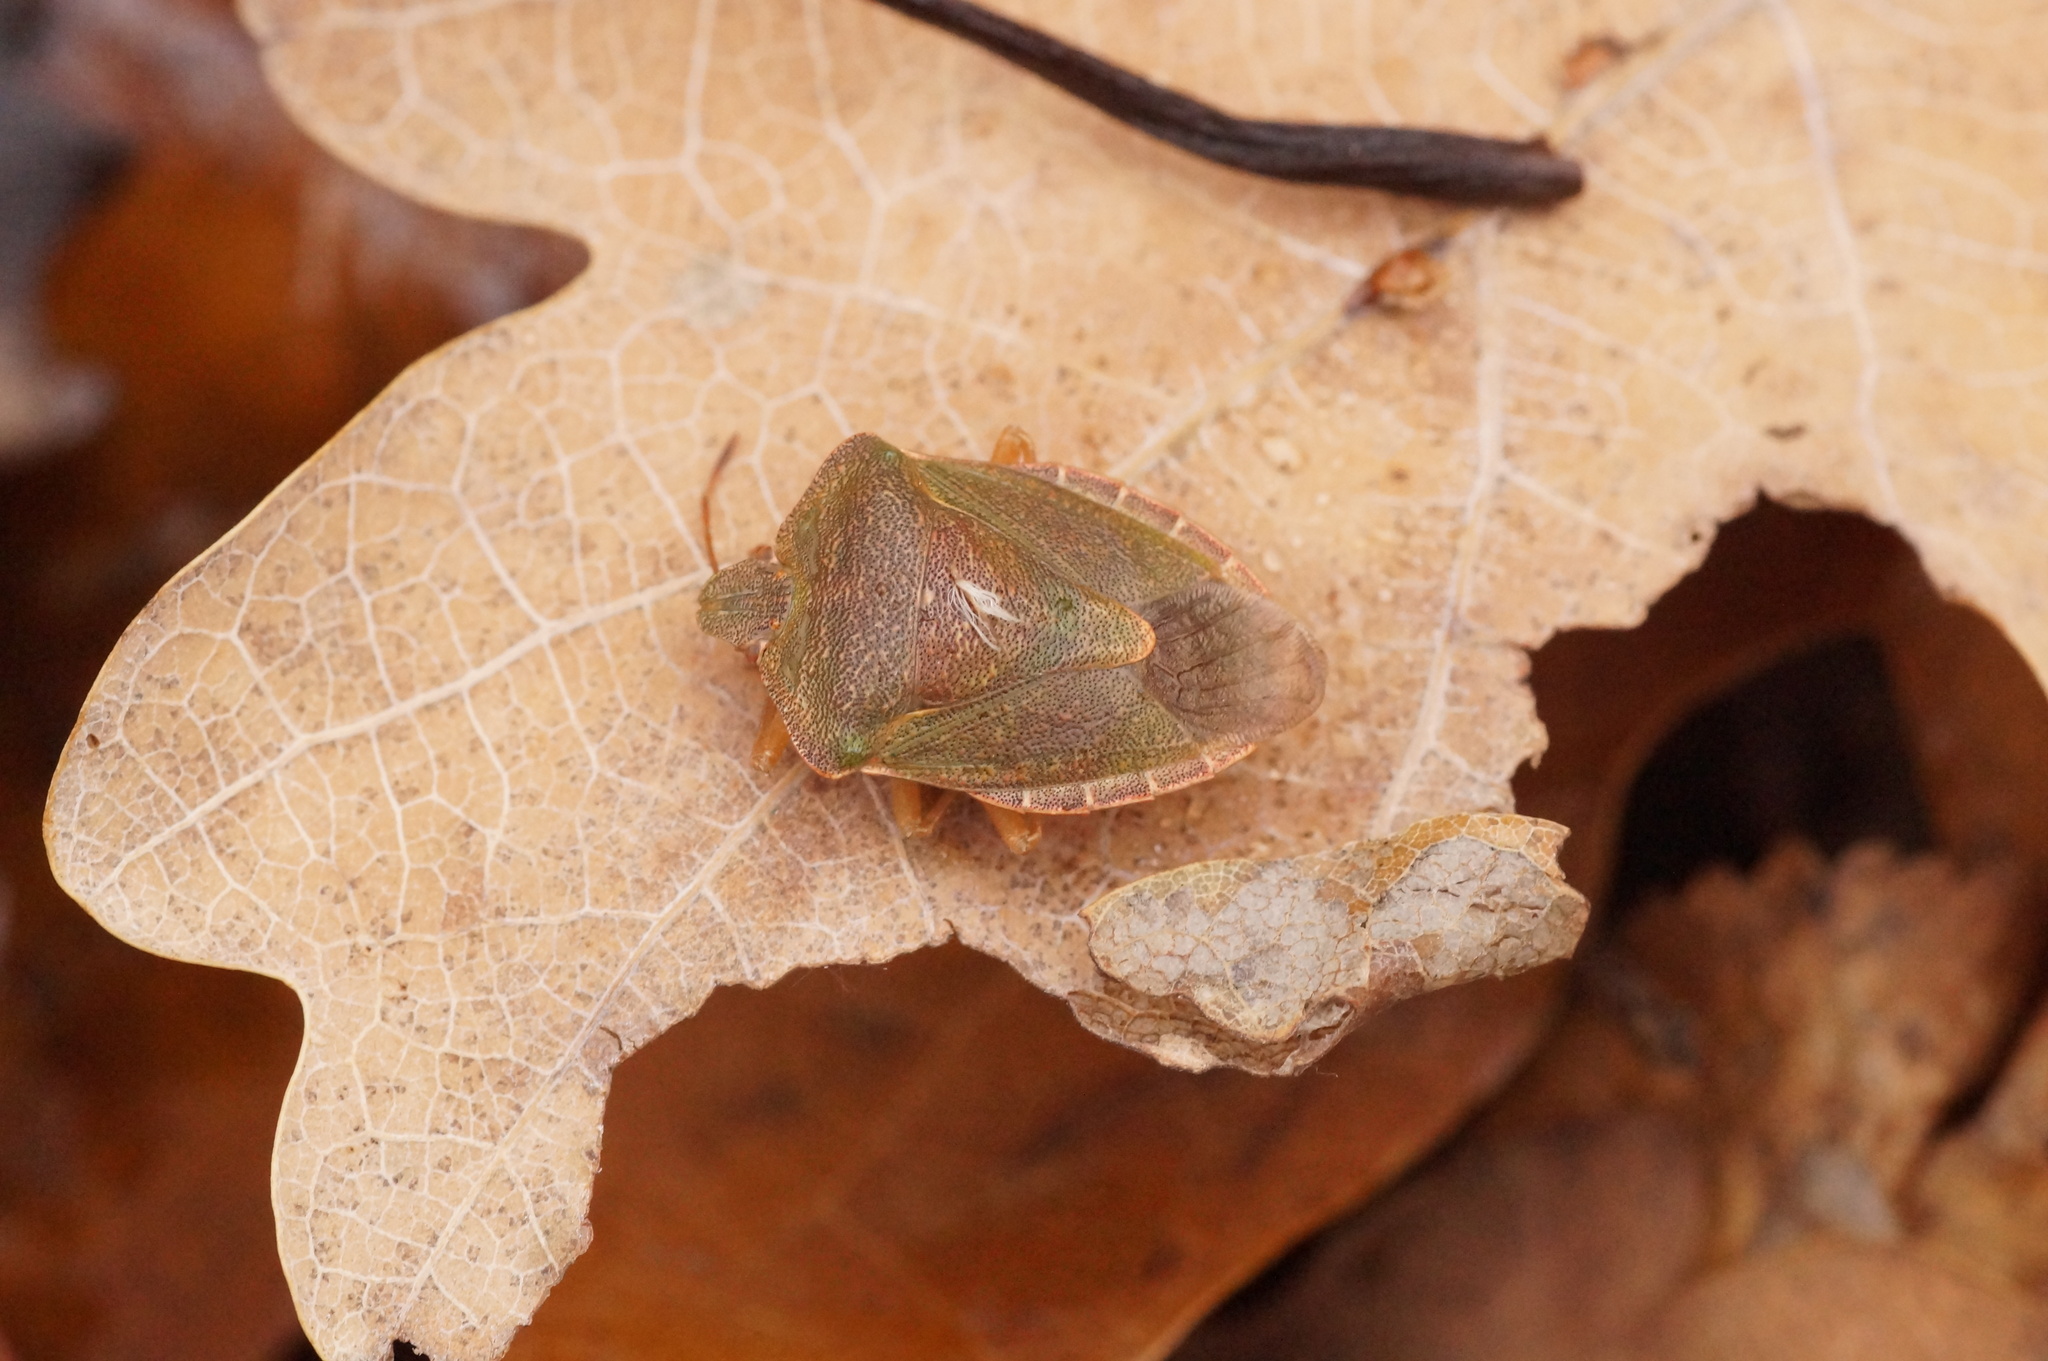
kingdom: Animalia
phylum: Arthropoda
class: Insecta
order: Hemiptera
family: Pentatomidae
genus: Palomena
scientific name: Palomena prasina
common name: Green shieldbug
